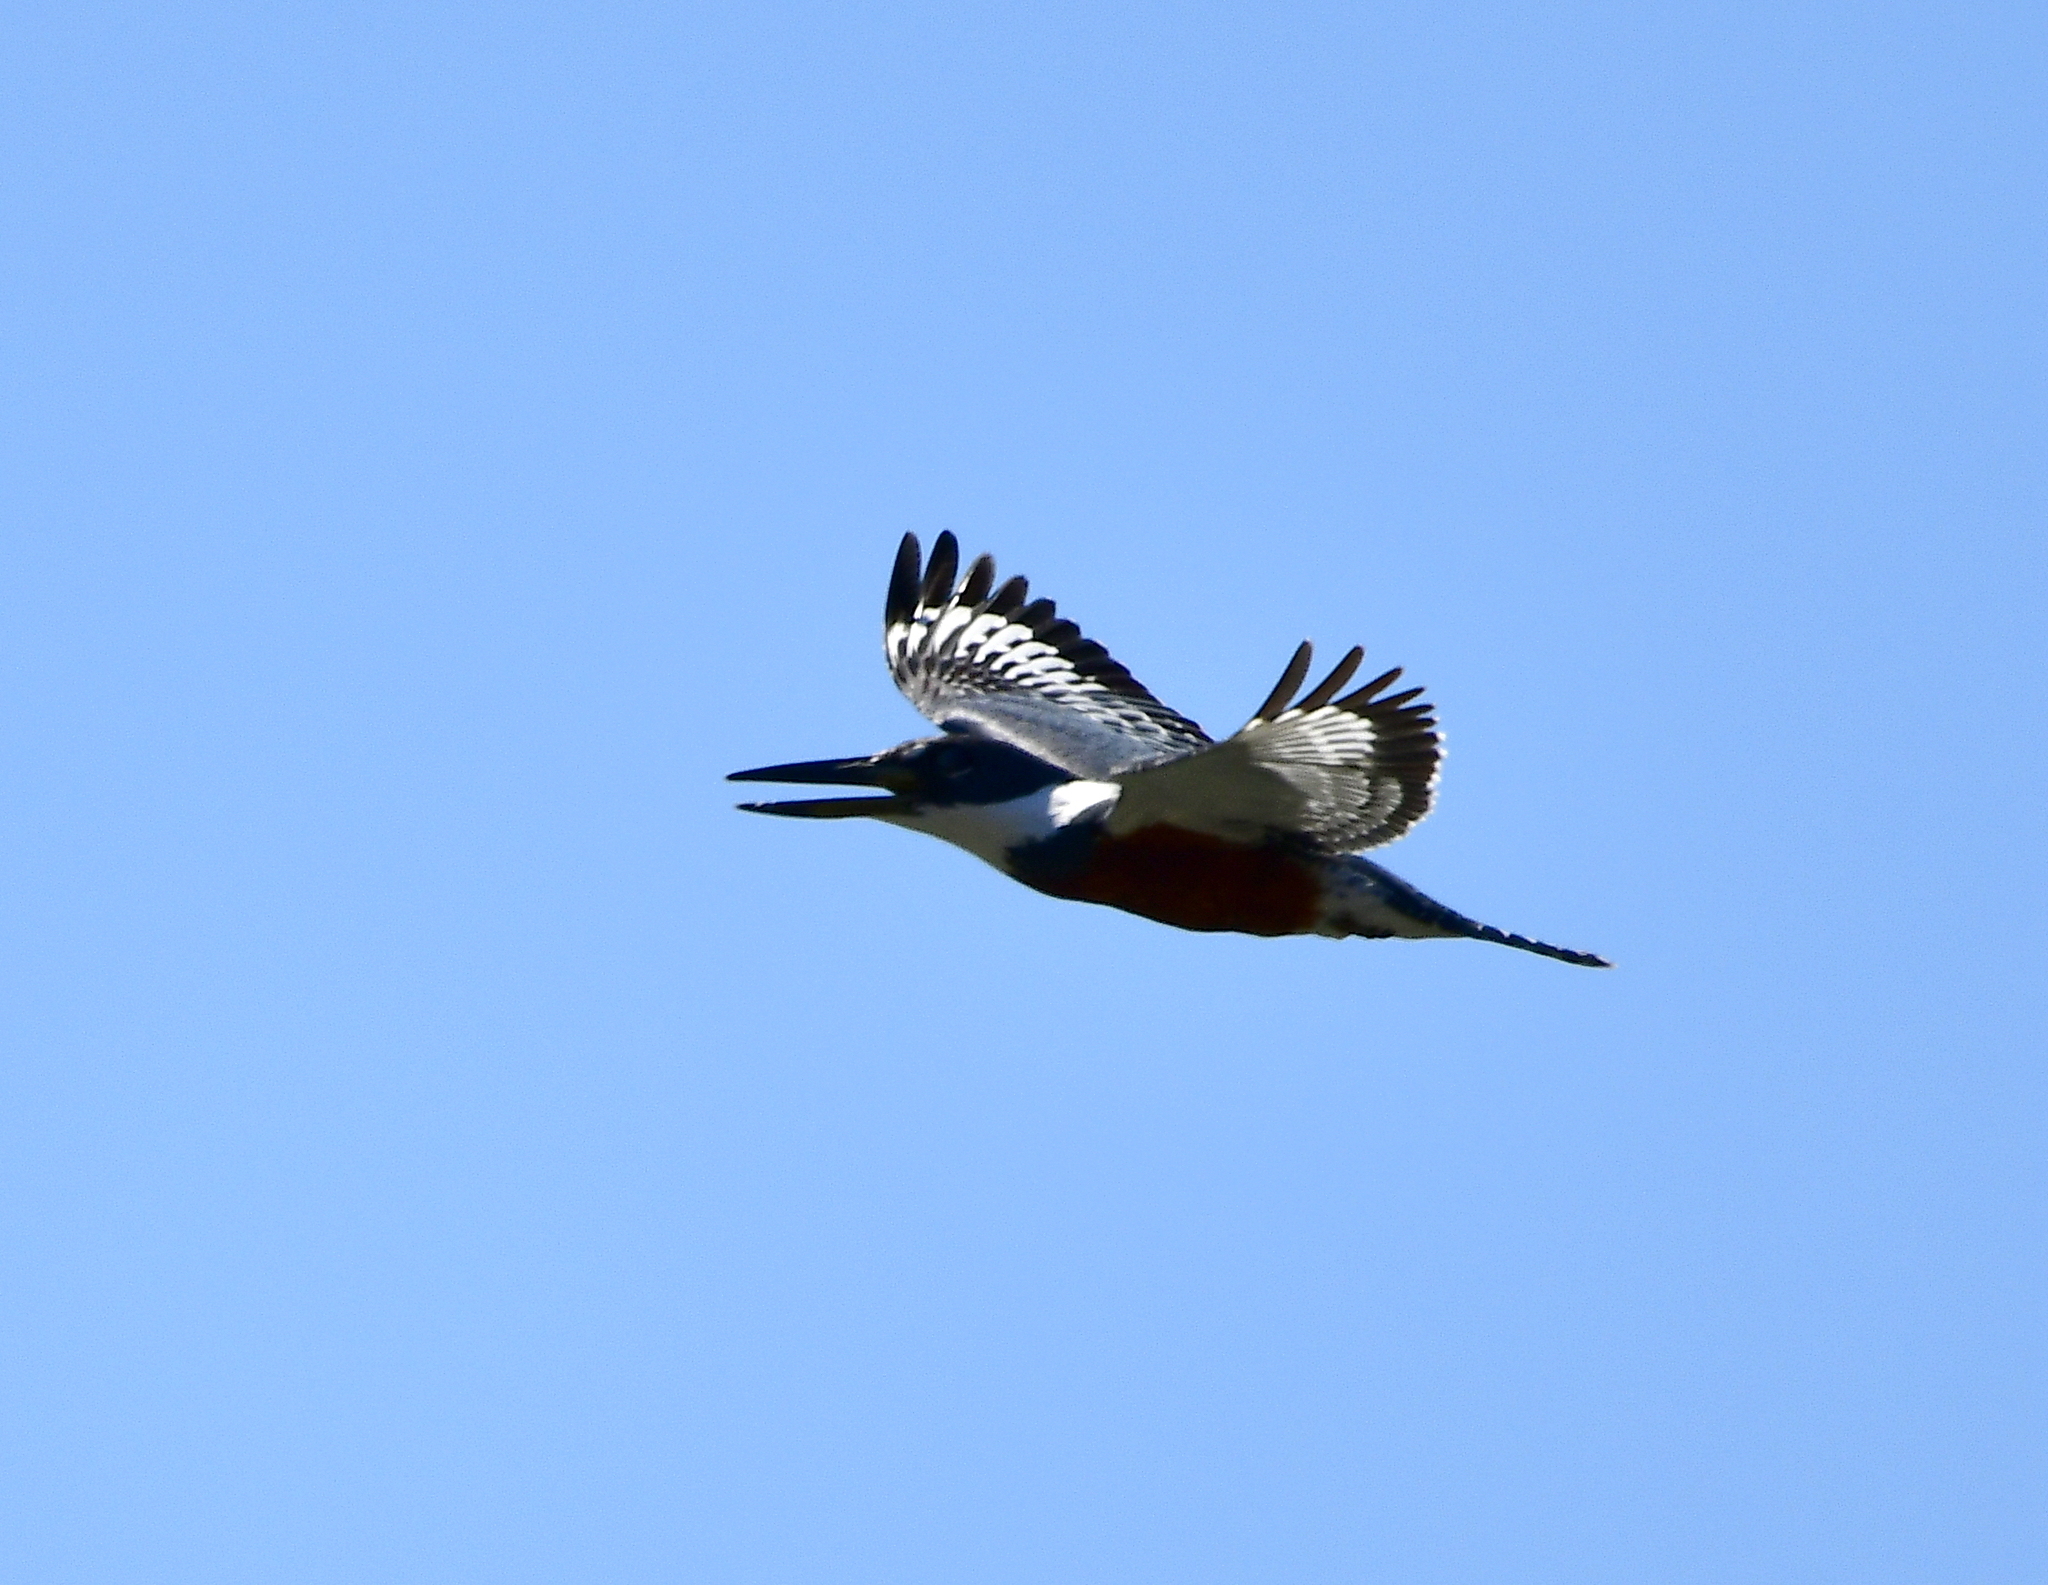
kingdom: Animalia
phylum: Chordata
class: Aves
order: Coraciiformes
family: Alcedinidae
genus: Megaceryle
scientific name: Megaceryle torquata
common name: Ringed kingfisher
